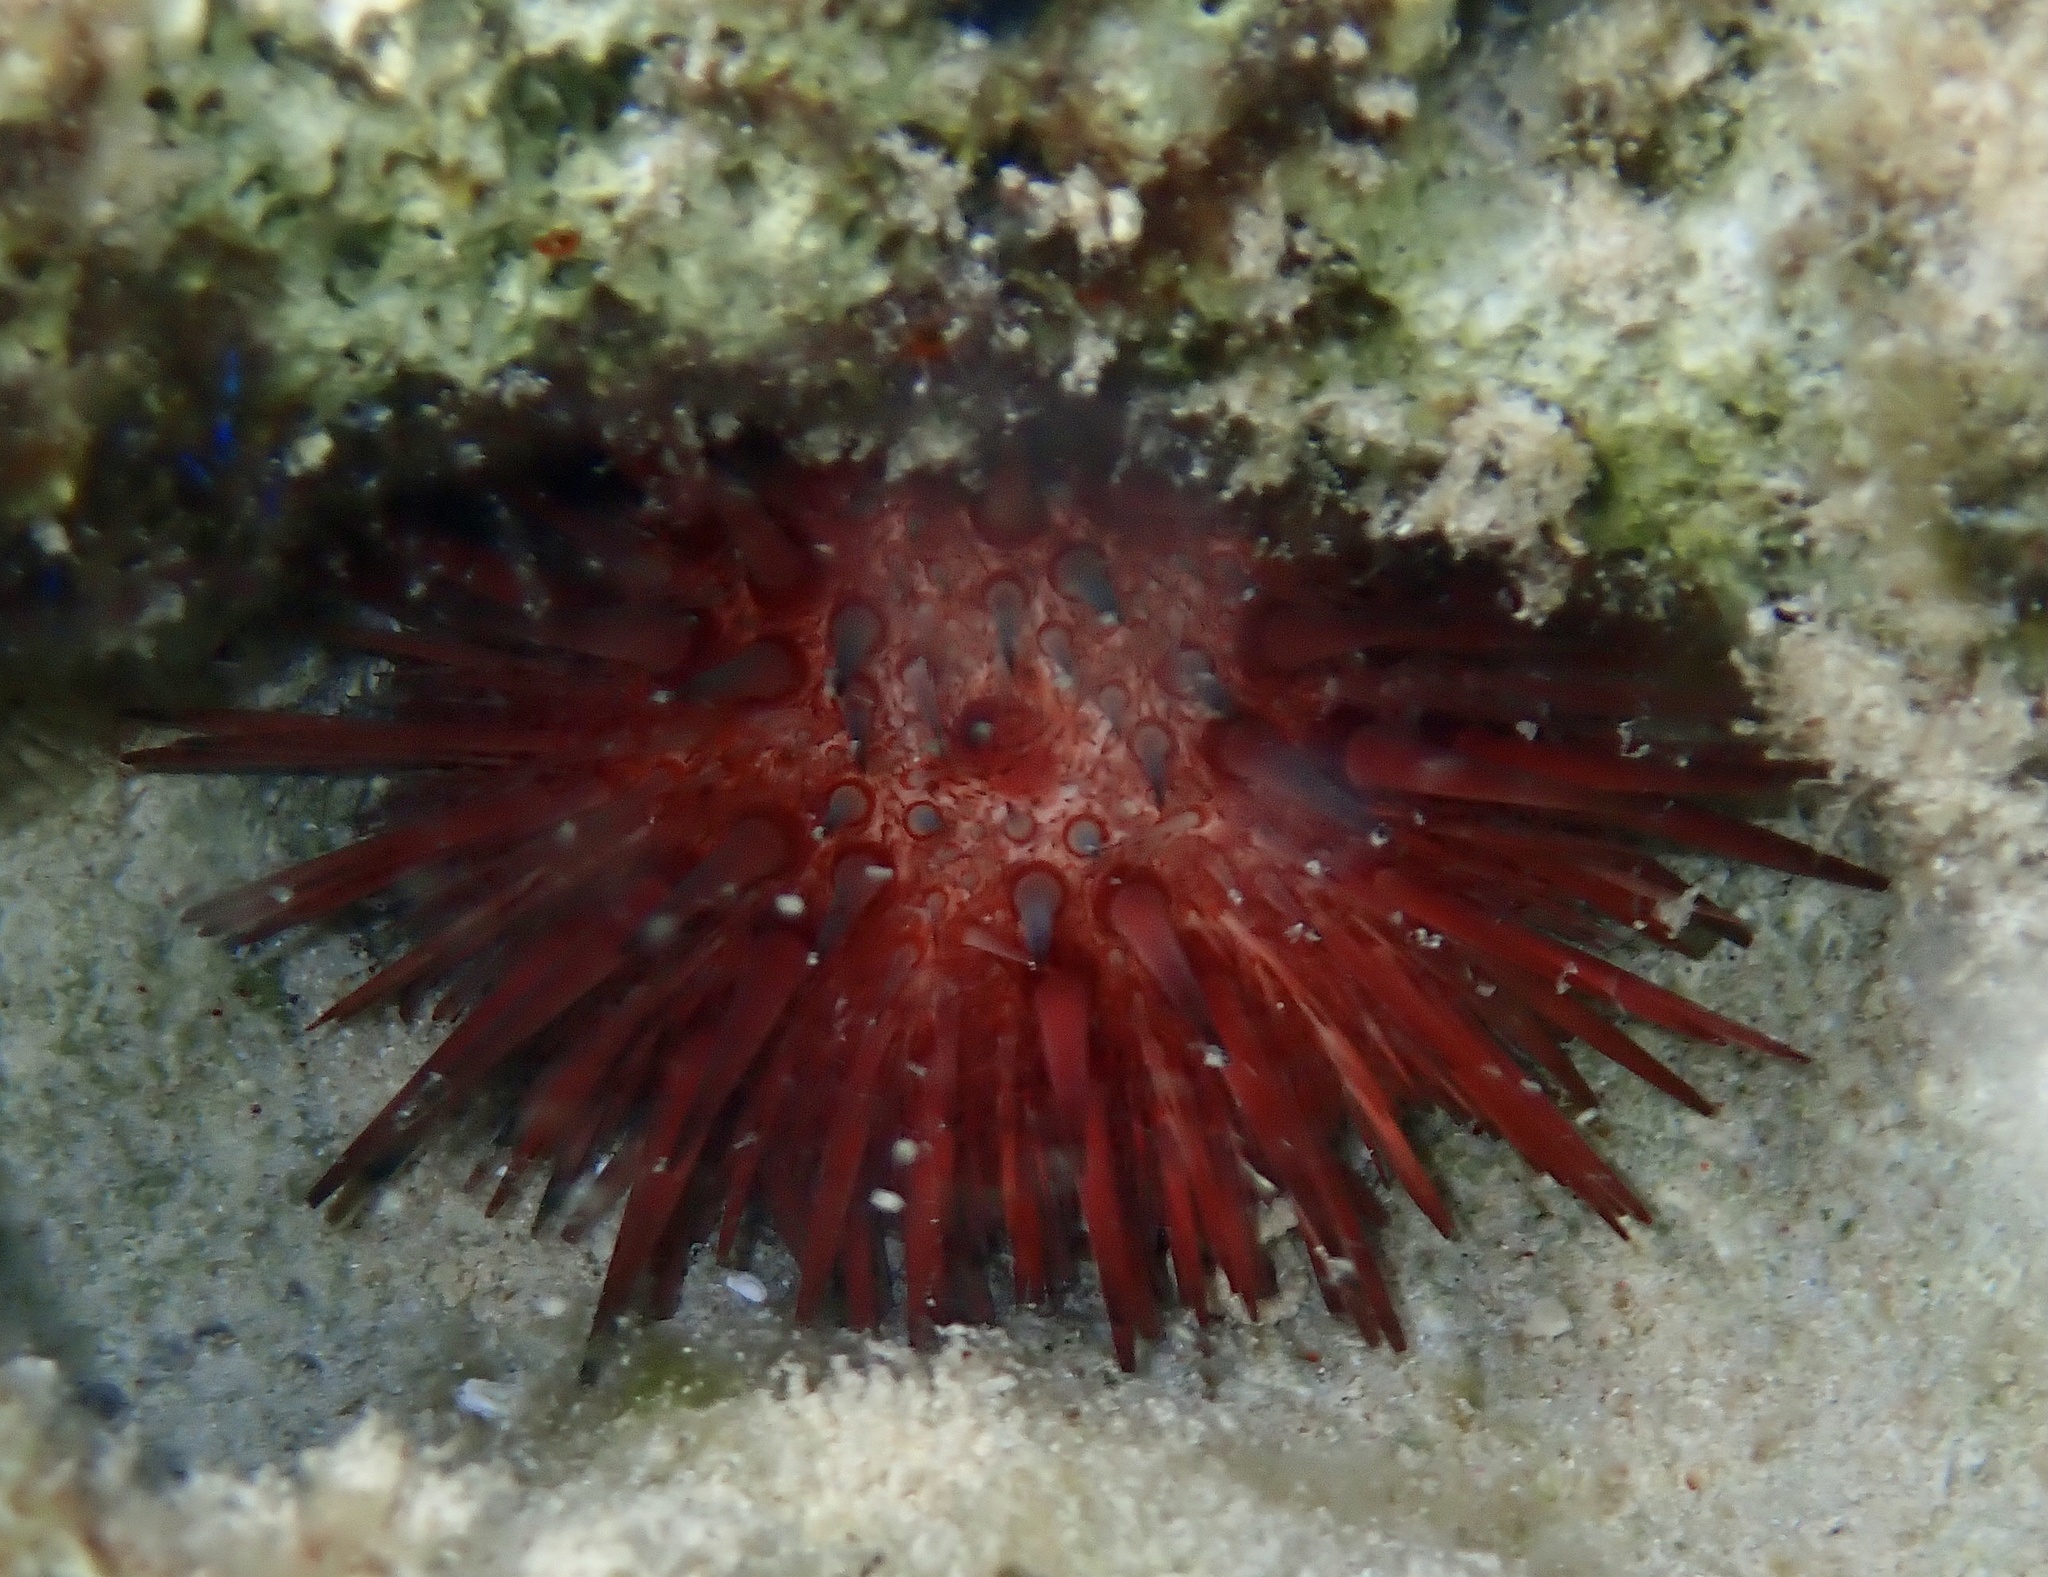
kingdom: Animalia
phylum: Echinodermata
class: Echinoidea
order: Camarodonta
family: Echinometridae
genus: Echinometra
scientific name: Echinometra lucunter
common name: Rock urchin
